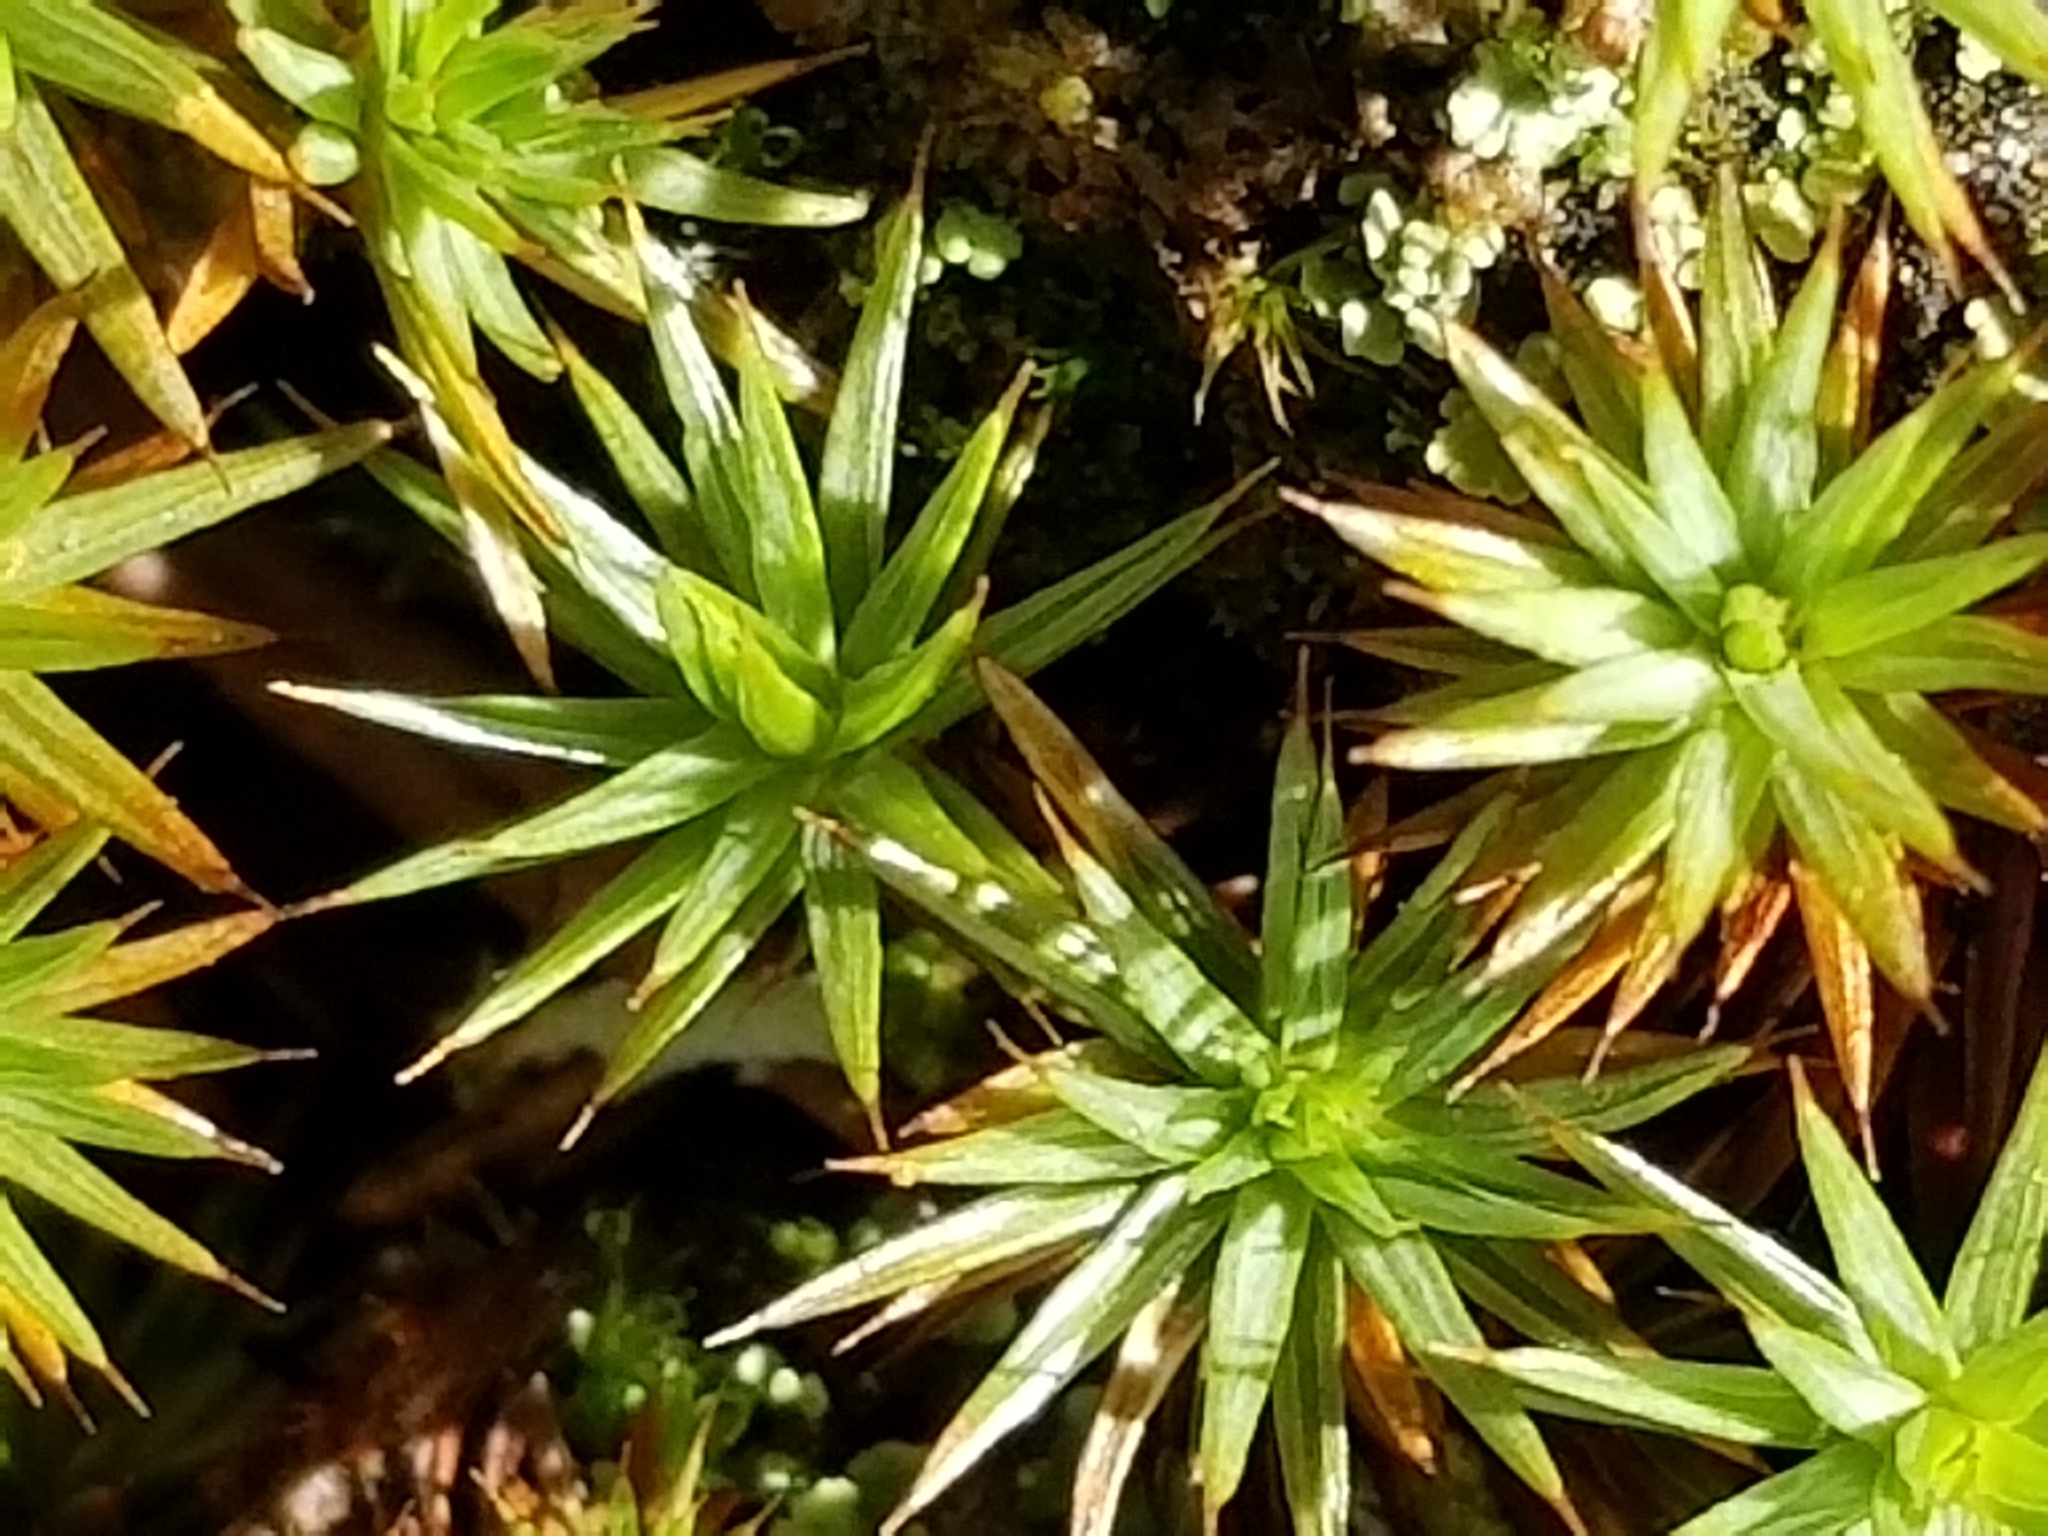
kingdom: Plantae
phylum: Bryophyta
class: Polytrichopsida
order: Polytrichales
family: Polytrichaceae
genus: Polytrichum
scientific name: Polytrichum juniperinum
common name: Juniper haircap moss
